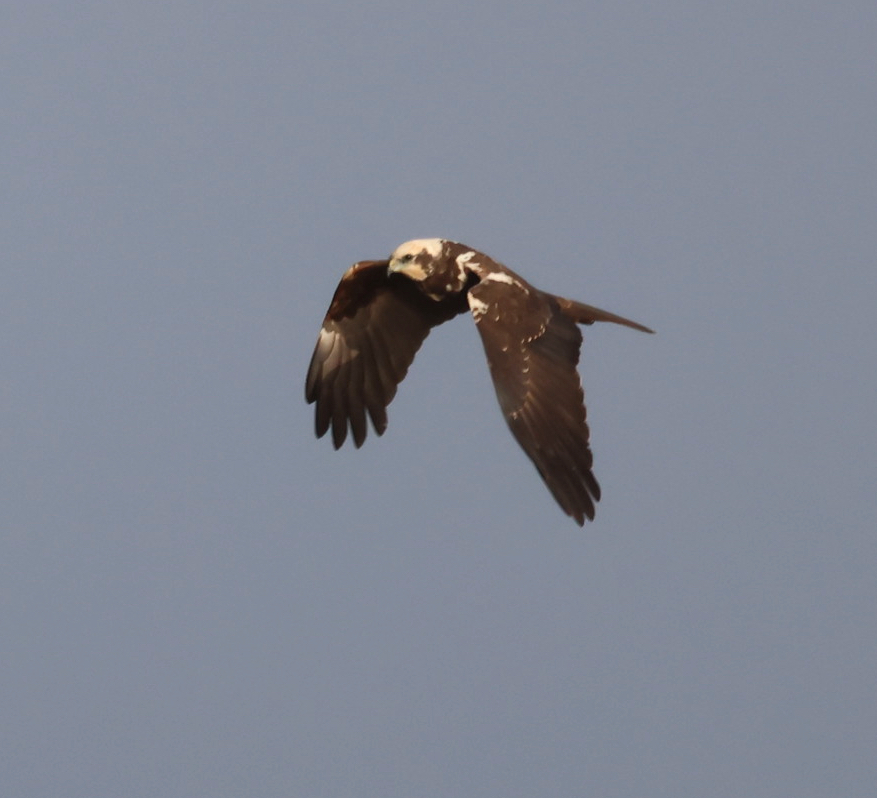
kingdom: Animalia
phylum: Chordata
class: Aves
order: Accipitriformes
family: Accipitridae
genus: Circus
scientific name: Circus aeruginosus
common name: Western marsh harrier
